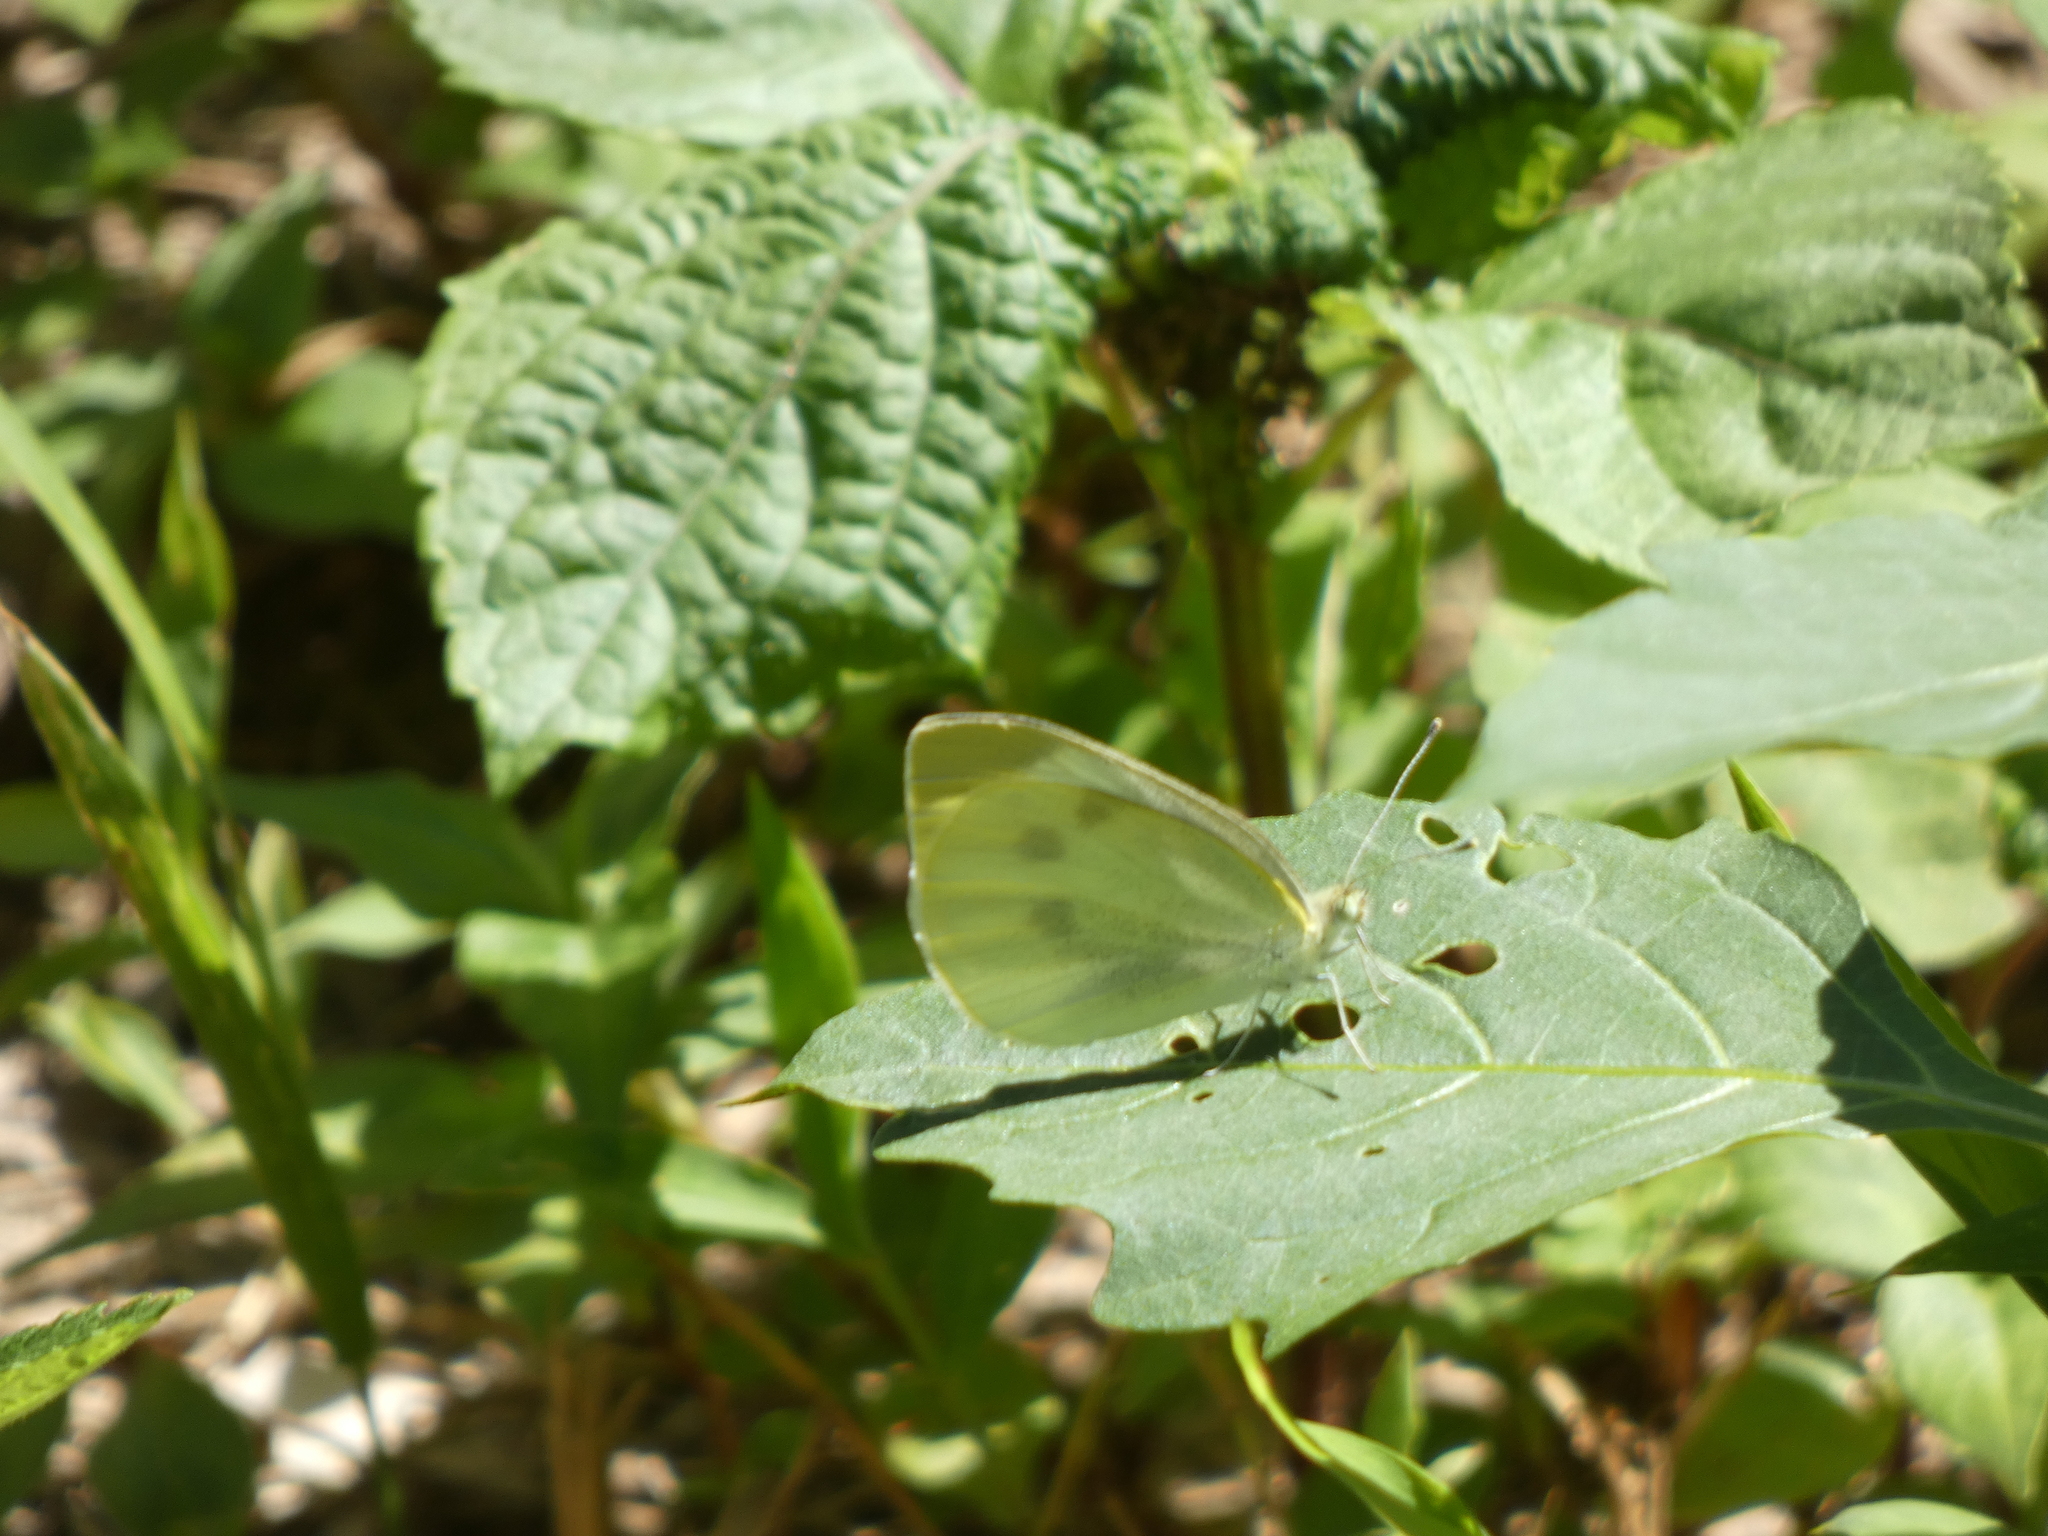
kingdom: Animalia
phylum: Arthropoda
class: Insecta
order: Lepidoptera
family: Pieridae
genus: Pieris
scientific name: Pieris rapae
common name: Small white
